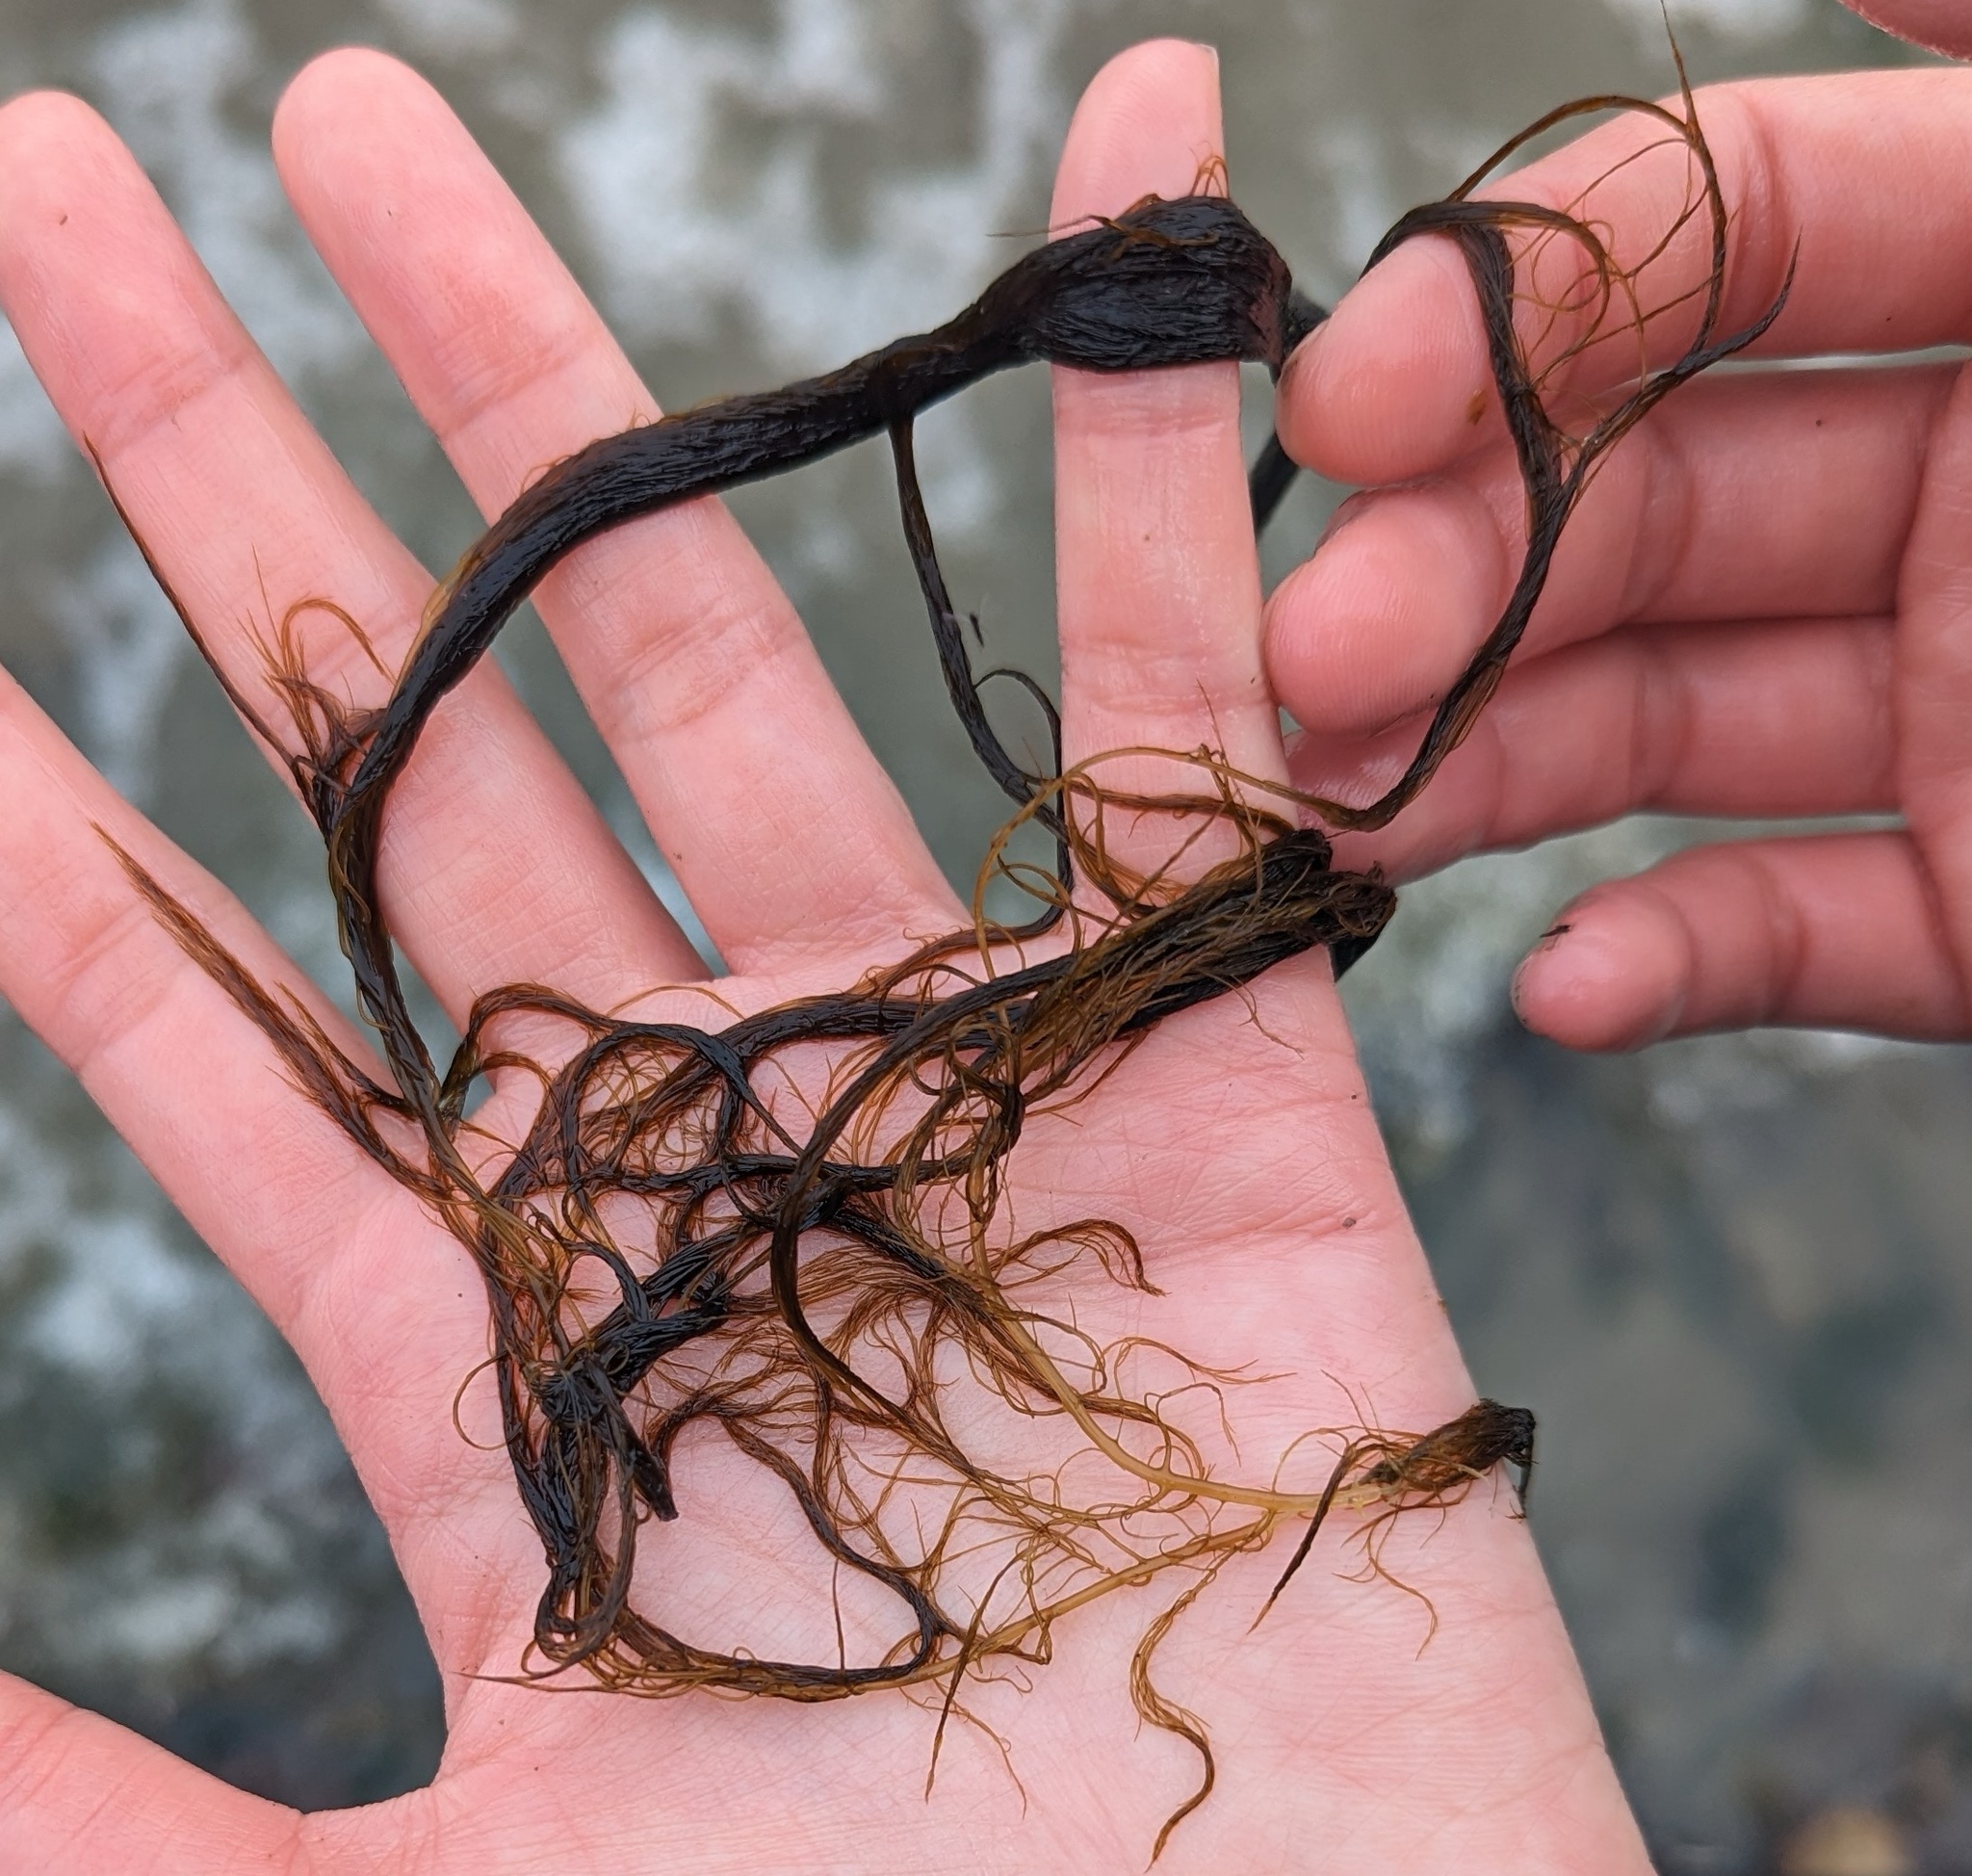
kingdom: Chromista
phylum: Ochrophyta
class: Phaeophyceae
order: Desmarestiales
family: Desmarestiaceae
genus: Desmarestia
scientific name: Desmarestia viridis
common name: Stringy acid kelp
